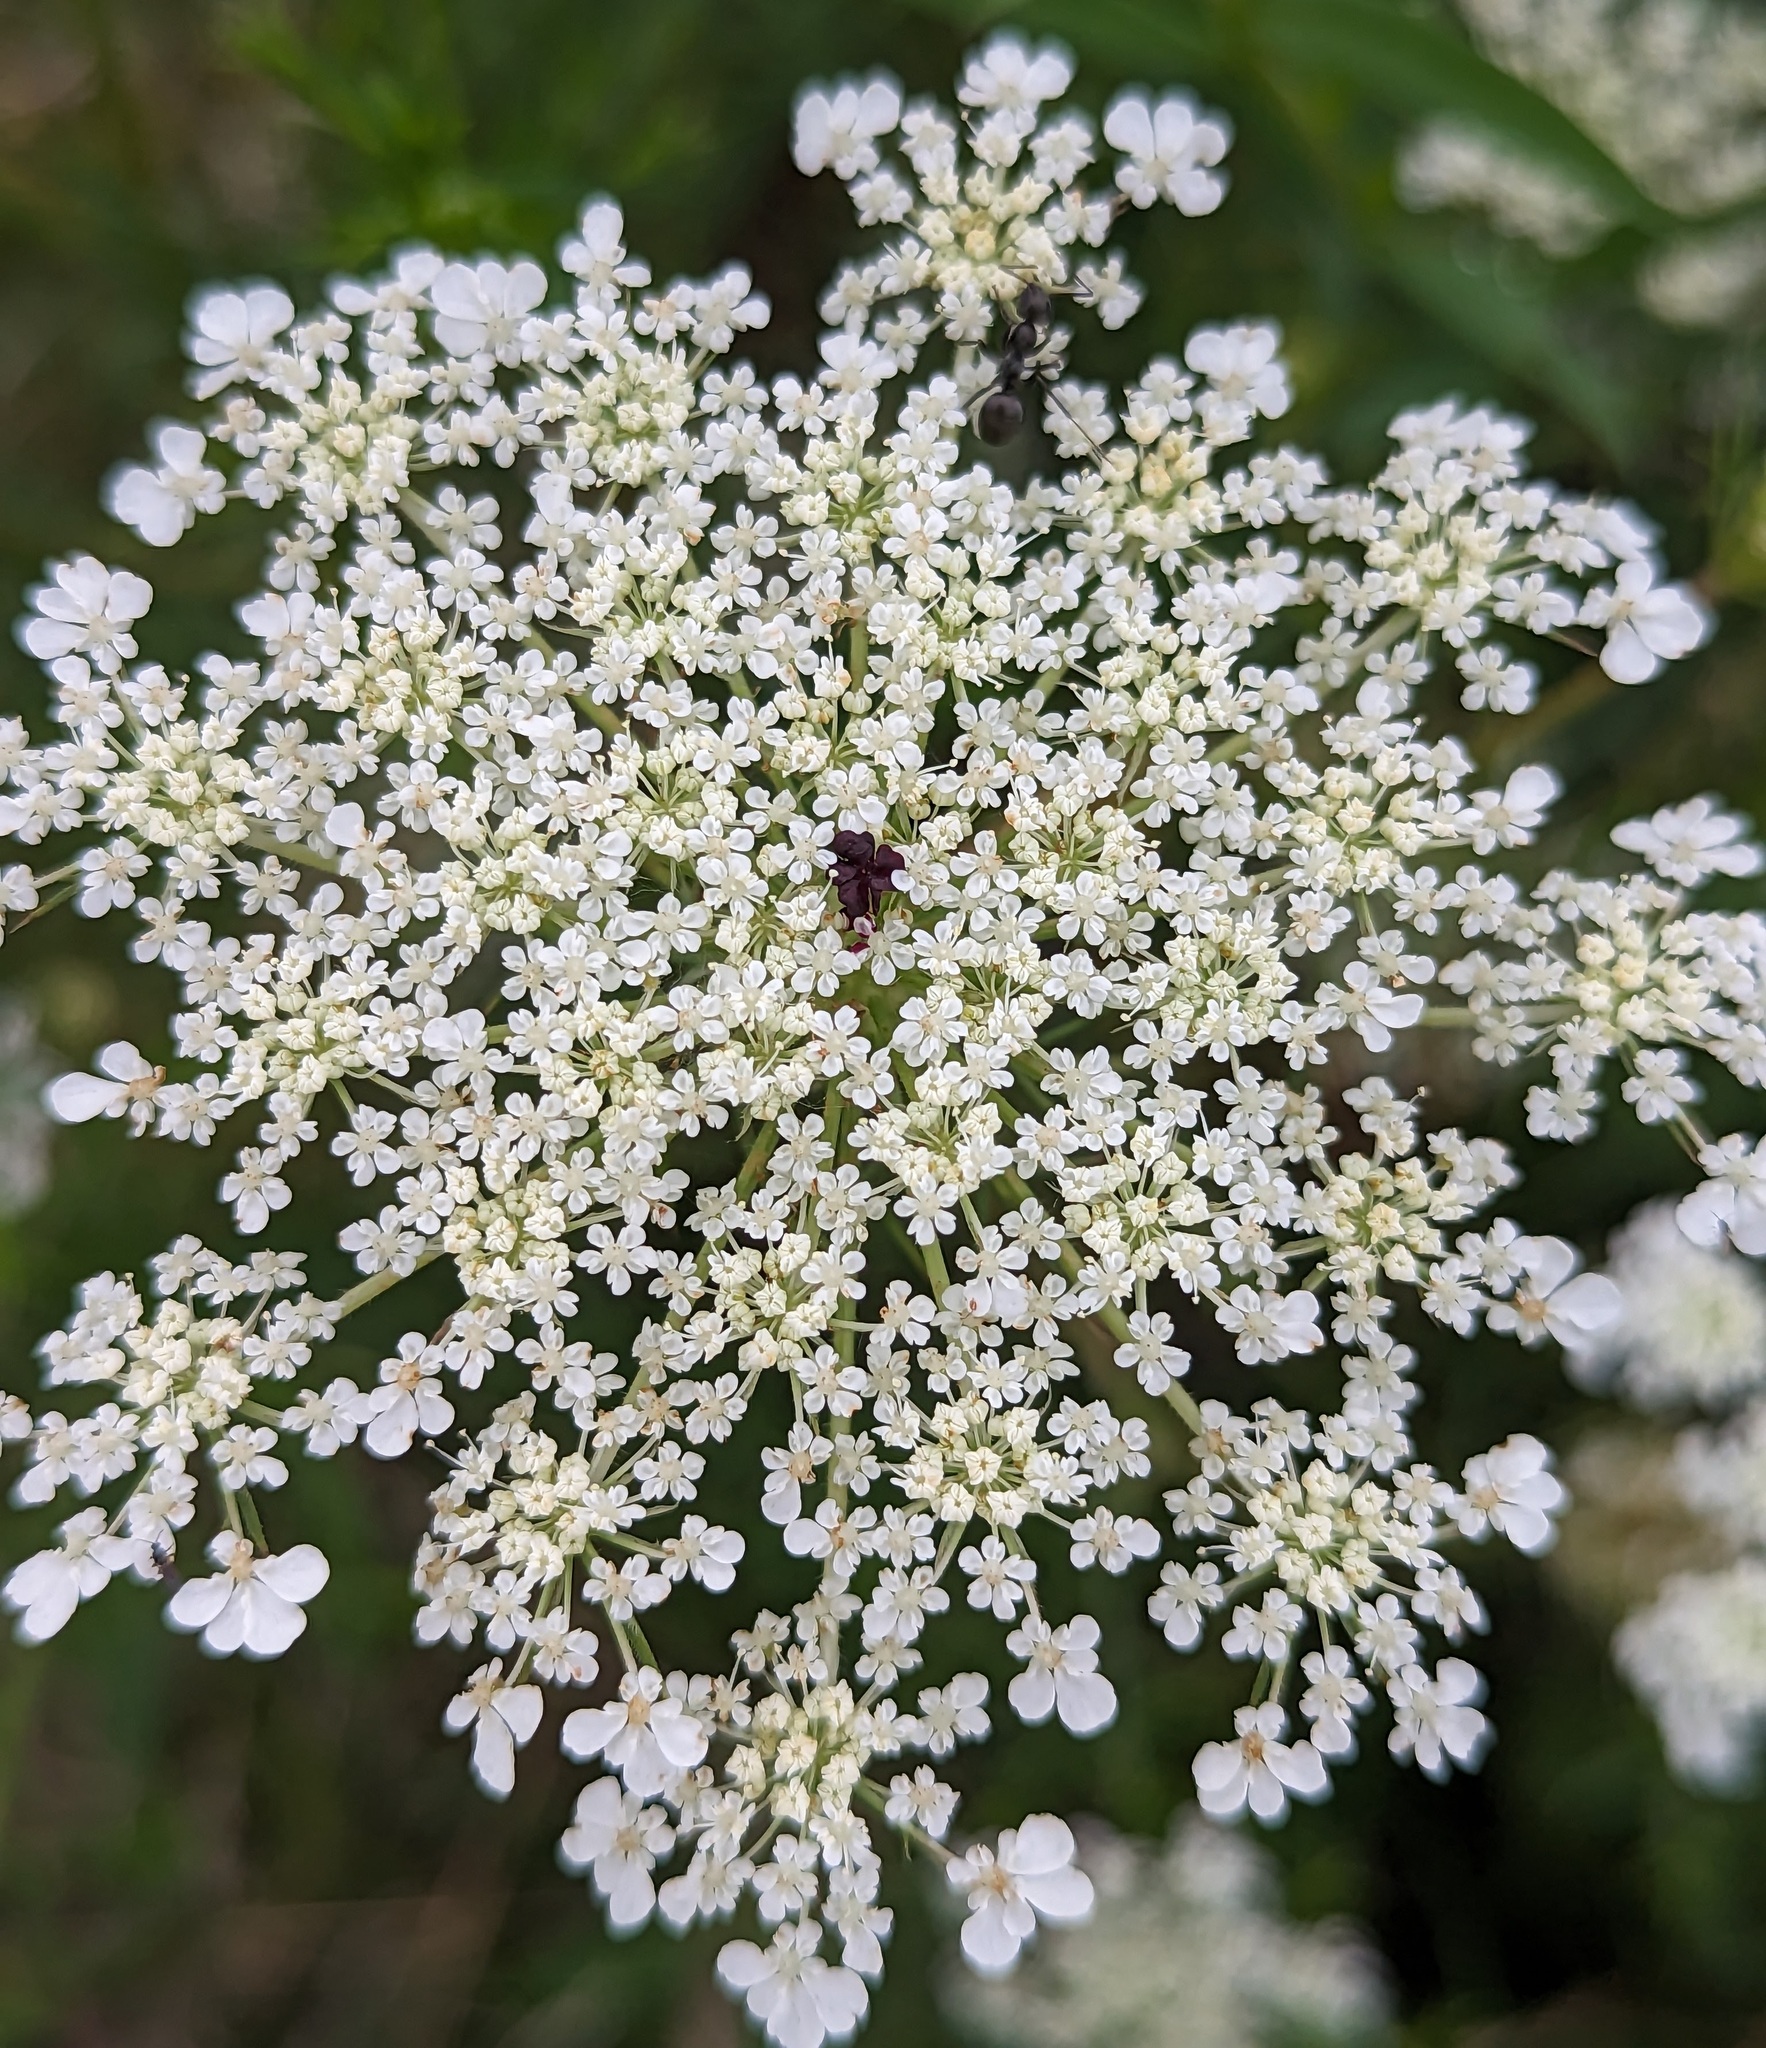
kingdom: Plantae
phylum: Tracheophyta
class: Magnoliopsida
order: Apiales
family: Apiaceae
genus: Daucus
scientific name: Daucus carota
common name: Wild carrot
